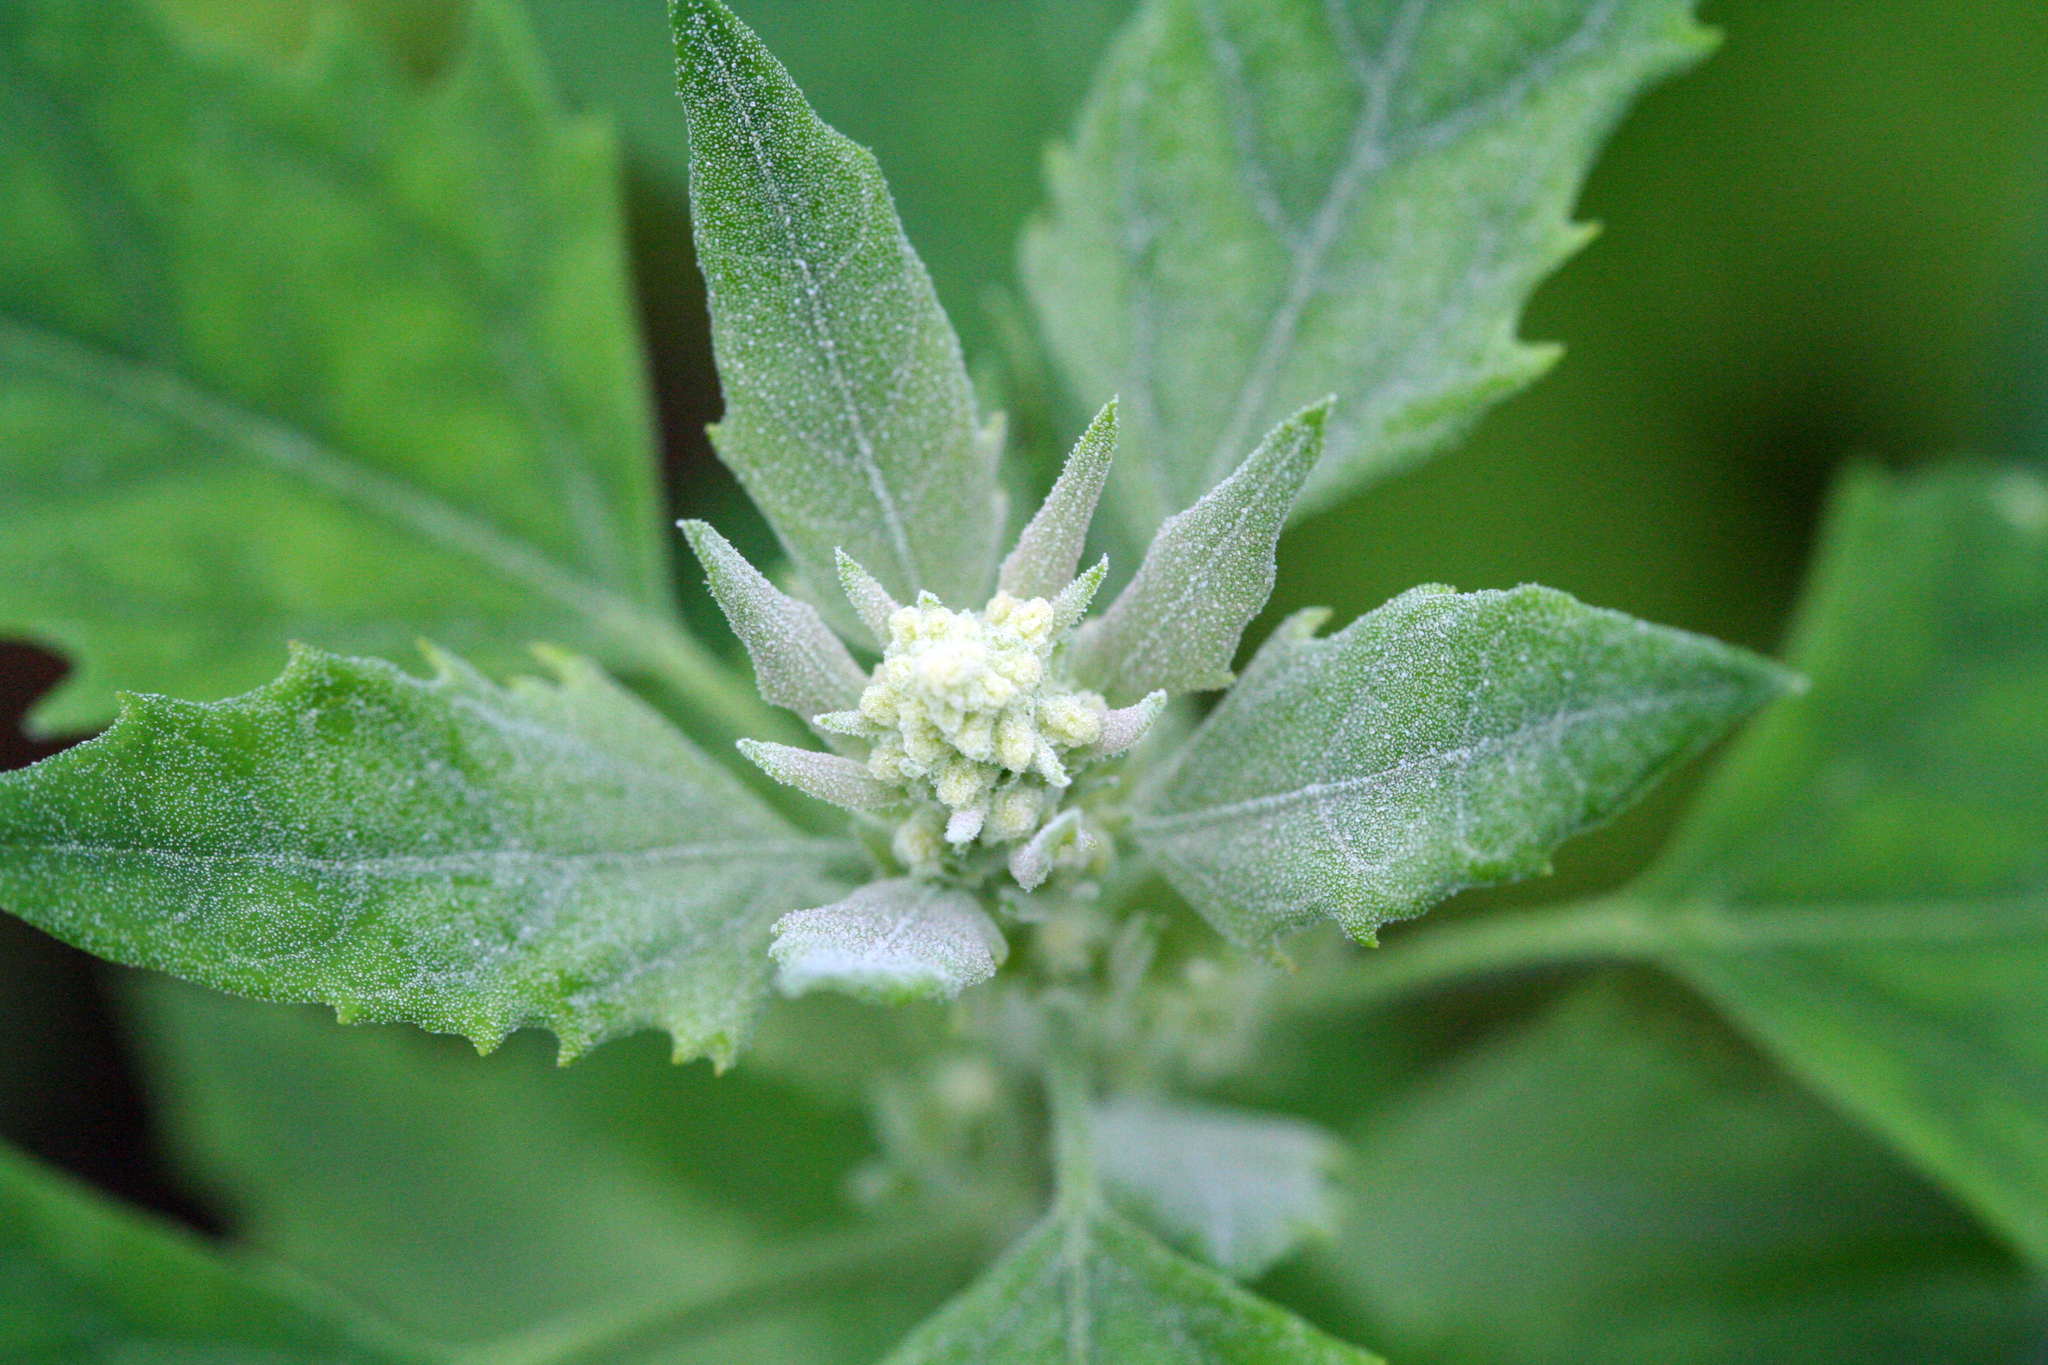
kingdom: Plantae
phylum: Tracheophyta
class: Magnoliopsida
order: Caryophyllales
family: Amaranthaceae
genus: Chenopodium
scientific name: Chenopodium album
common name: Fat-hen
